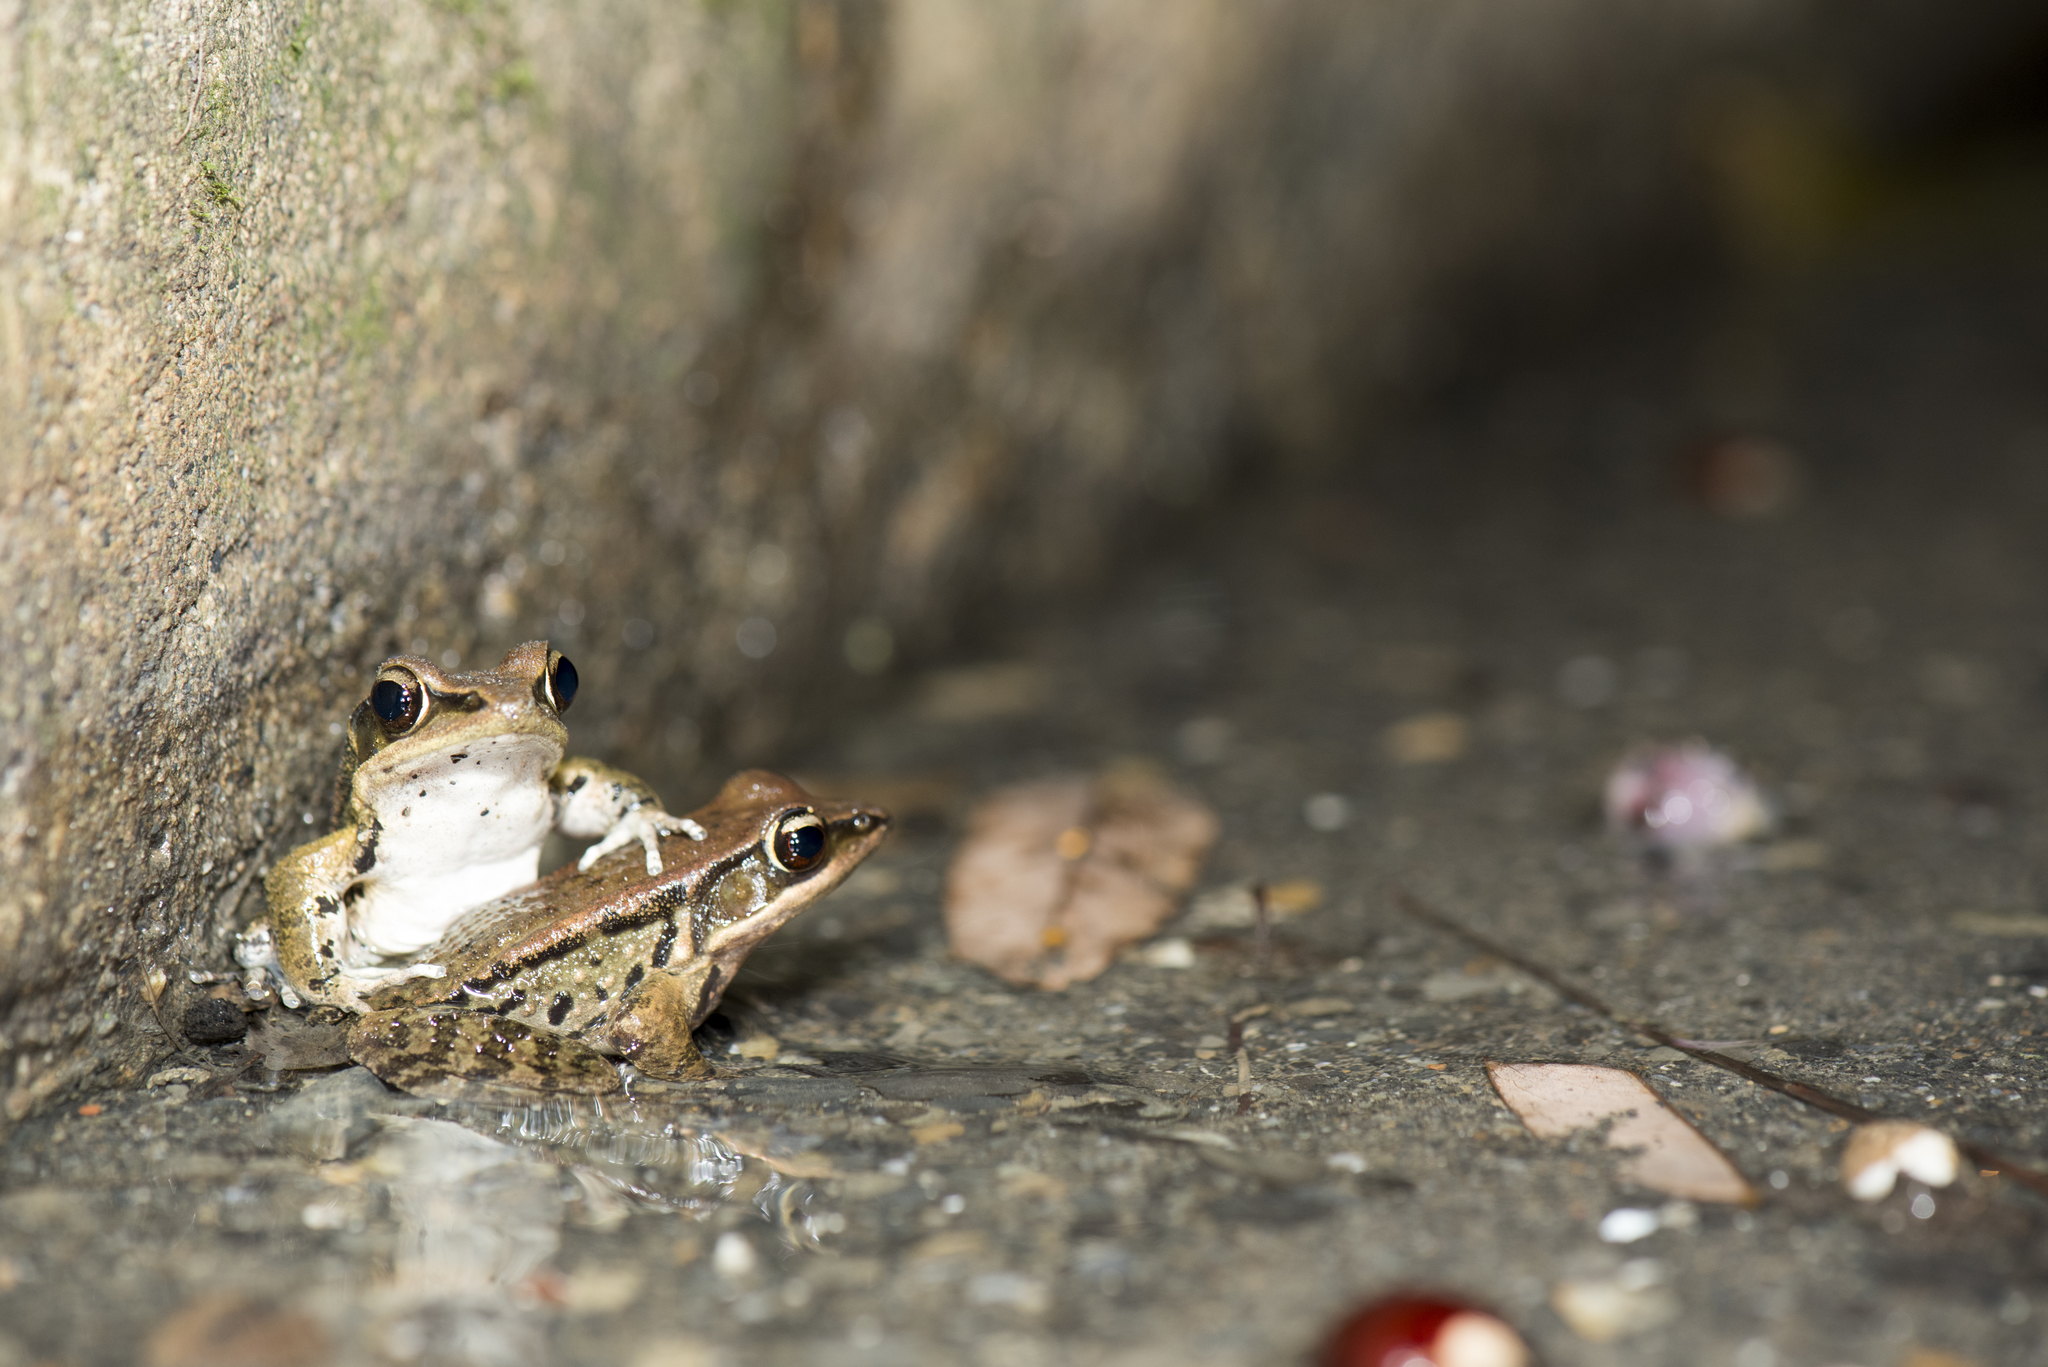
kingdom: Animalia
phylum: Chordata
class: Amphibia
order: Anura
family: Ranidae
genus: Hylarana
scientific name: Hylarana latouchii
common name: Broad-folded frog
